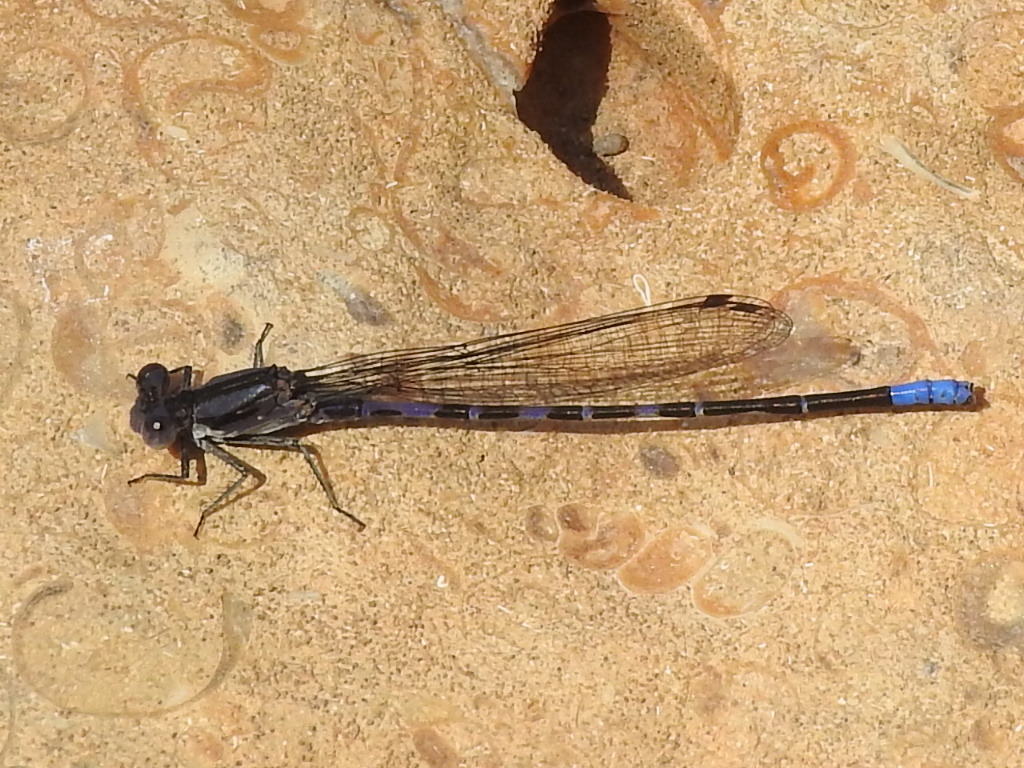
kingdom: Animalia
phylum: Arthropoda
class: Insecta
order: Odonata
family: Coenagrionidae
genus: Argia
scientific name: Argia immunda
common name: Kiowa dancer
